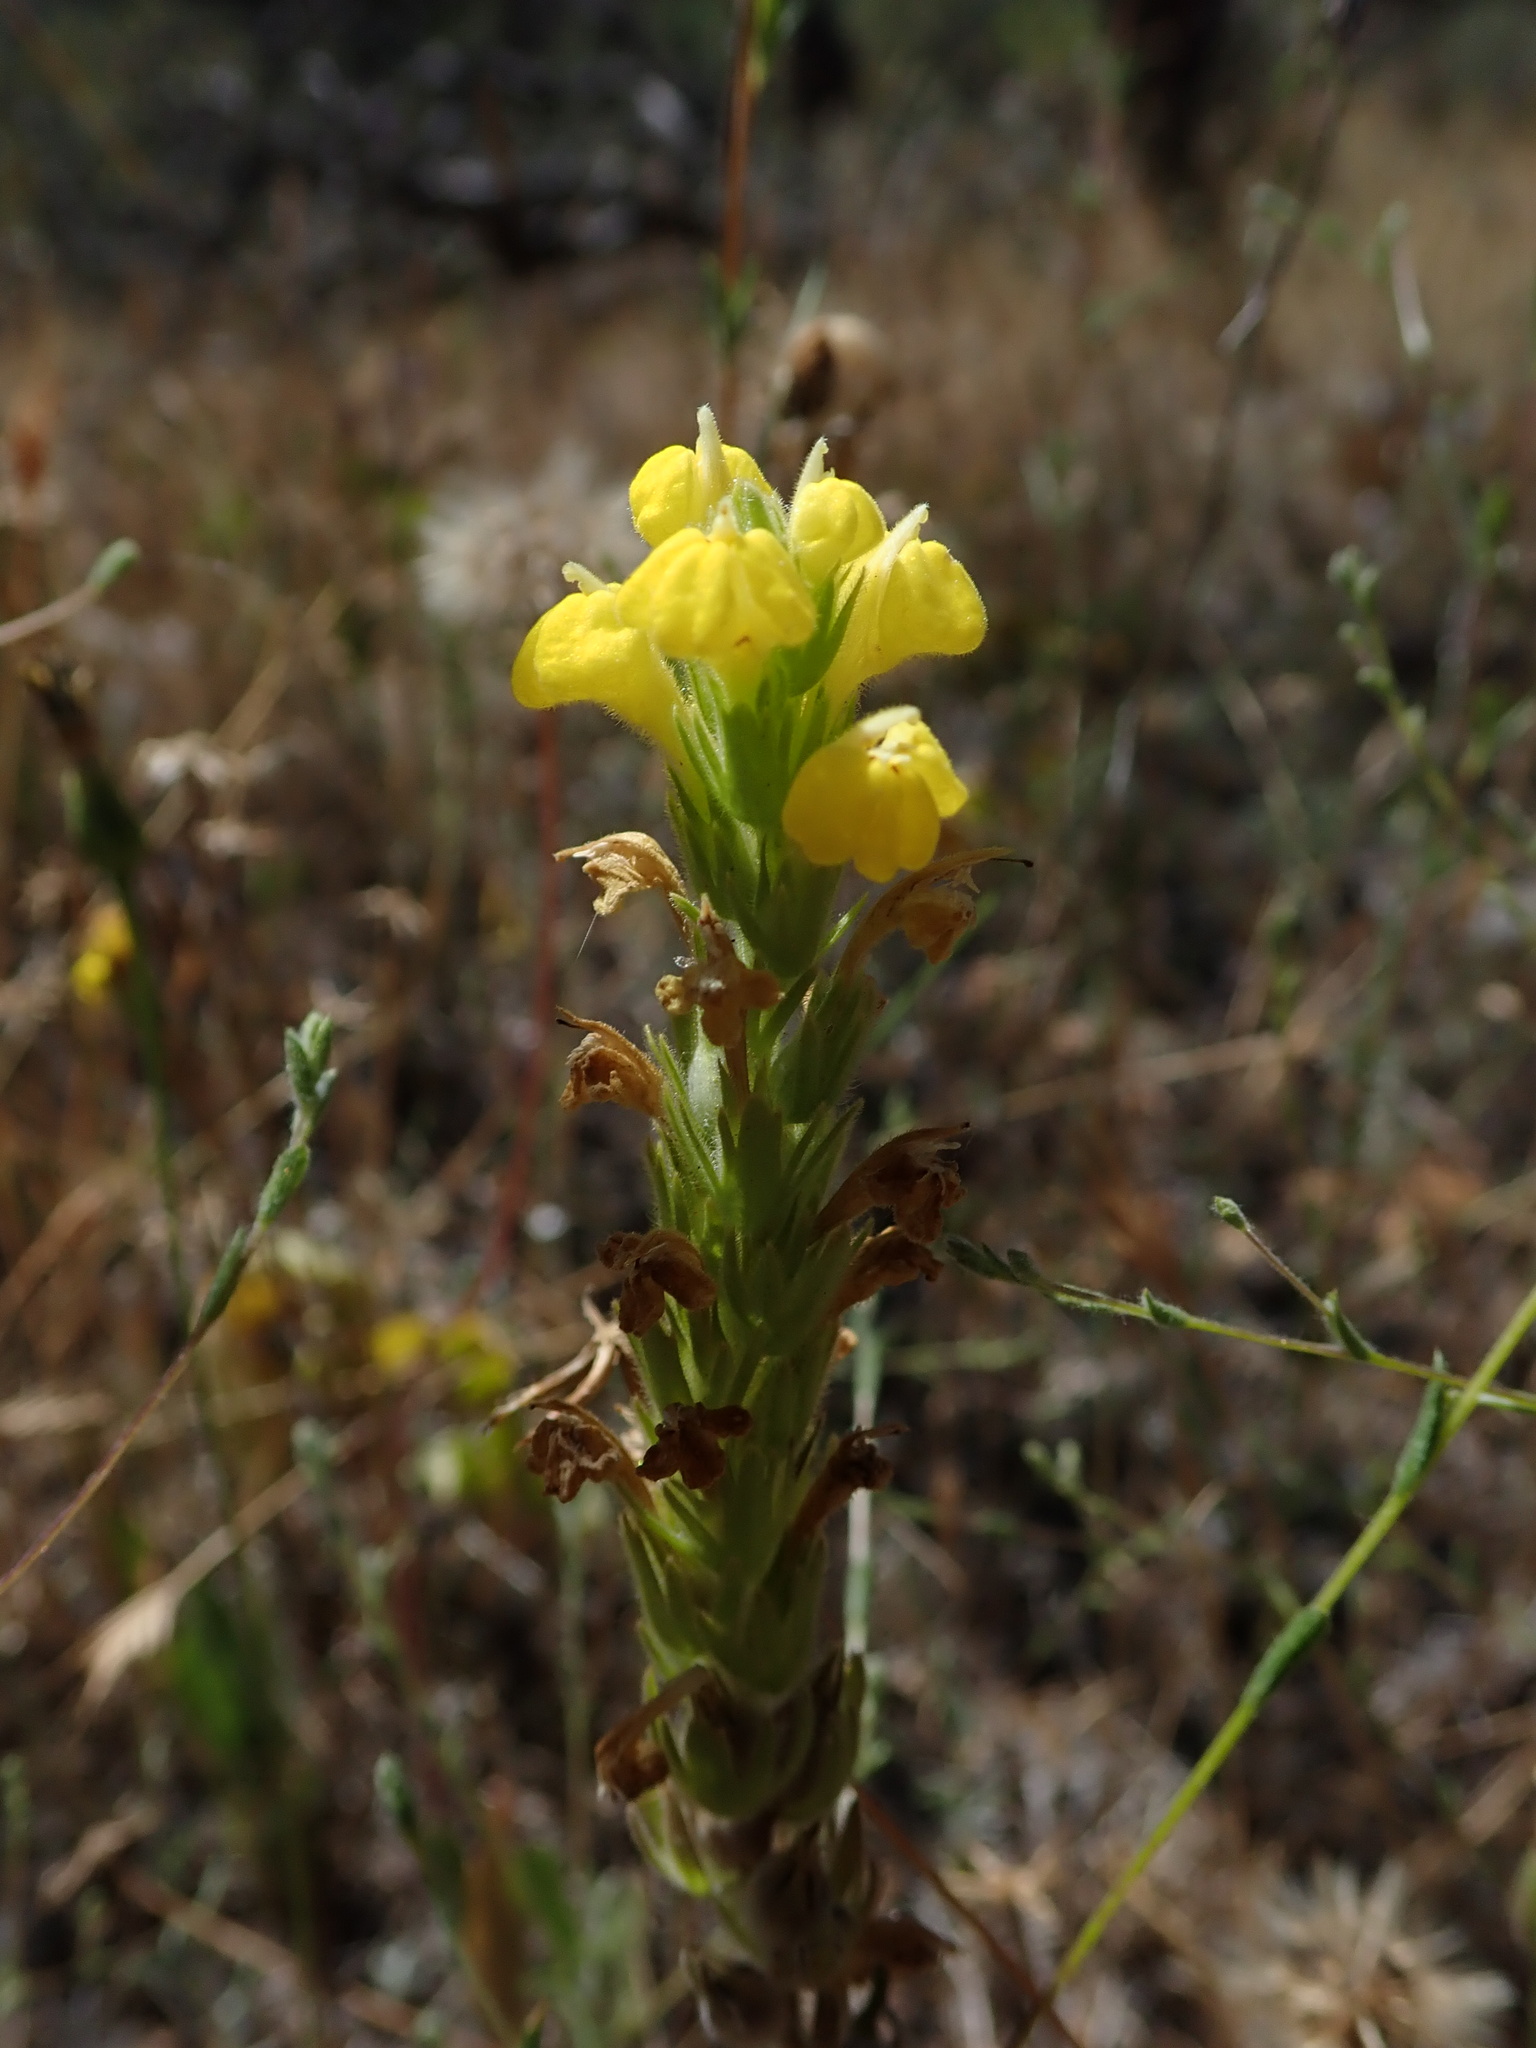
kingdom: Plantae
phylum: Tracheophyta
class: Magnoliopsida
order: Lamiales
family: Orobanchaceae
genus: Castilleja
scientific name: Castilleja lacera
